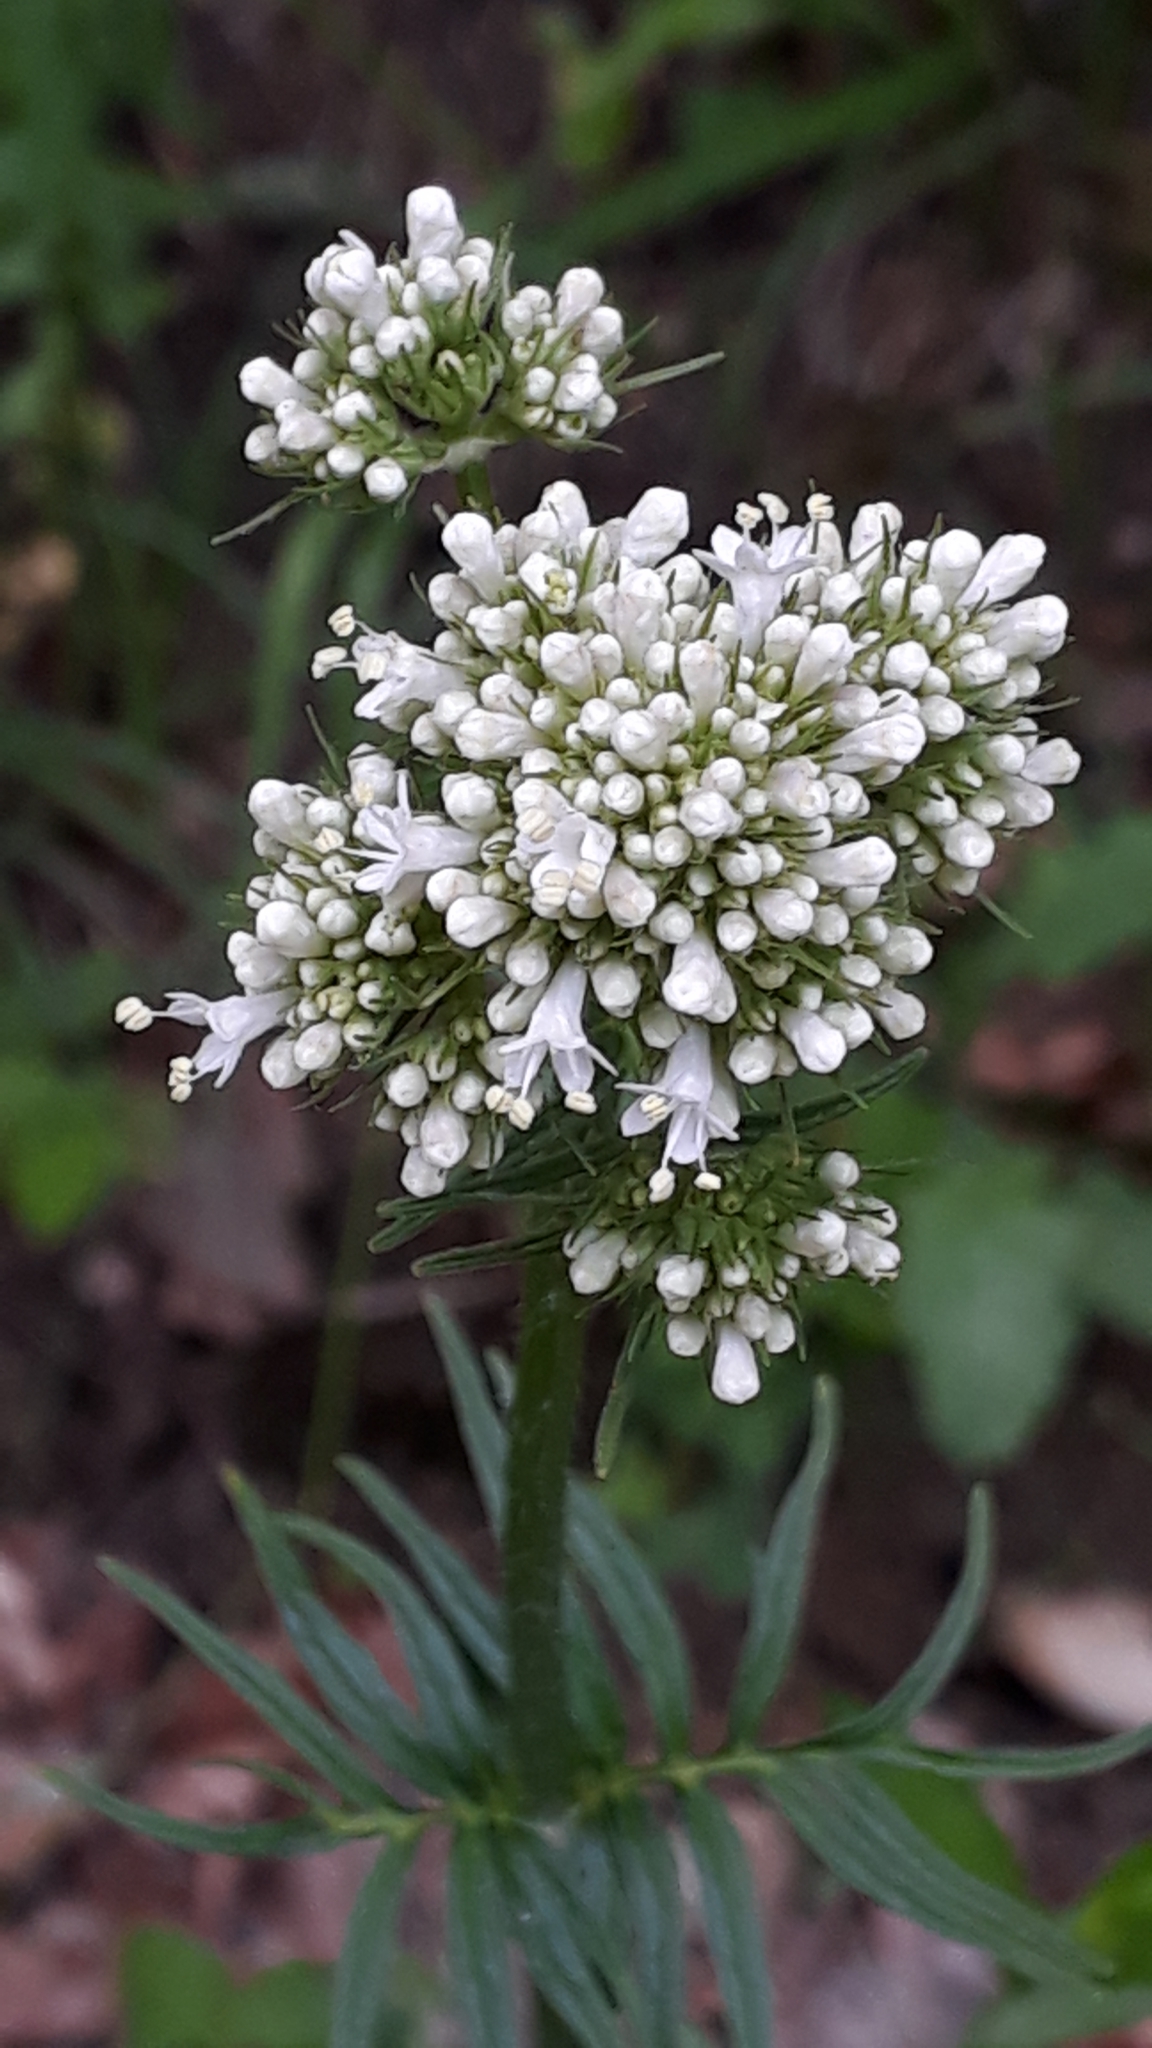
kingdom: Plantae
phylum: Tracheophyta
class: Magnoliopsida
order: Dipsacales
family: Caprifoliaceae
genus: Valeriana
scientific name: Valeriana officinalis
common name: Common valerian
